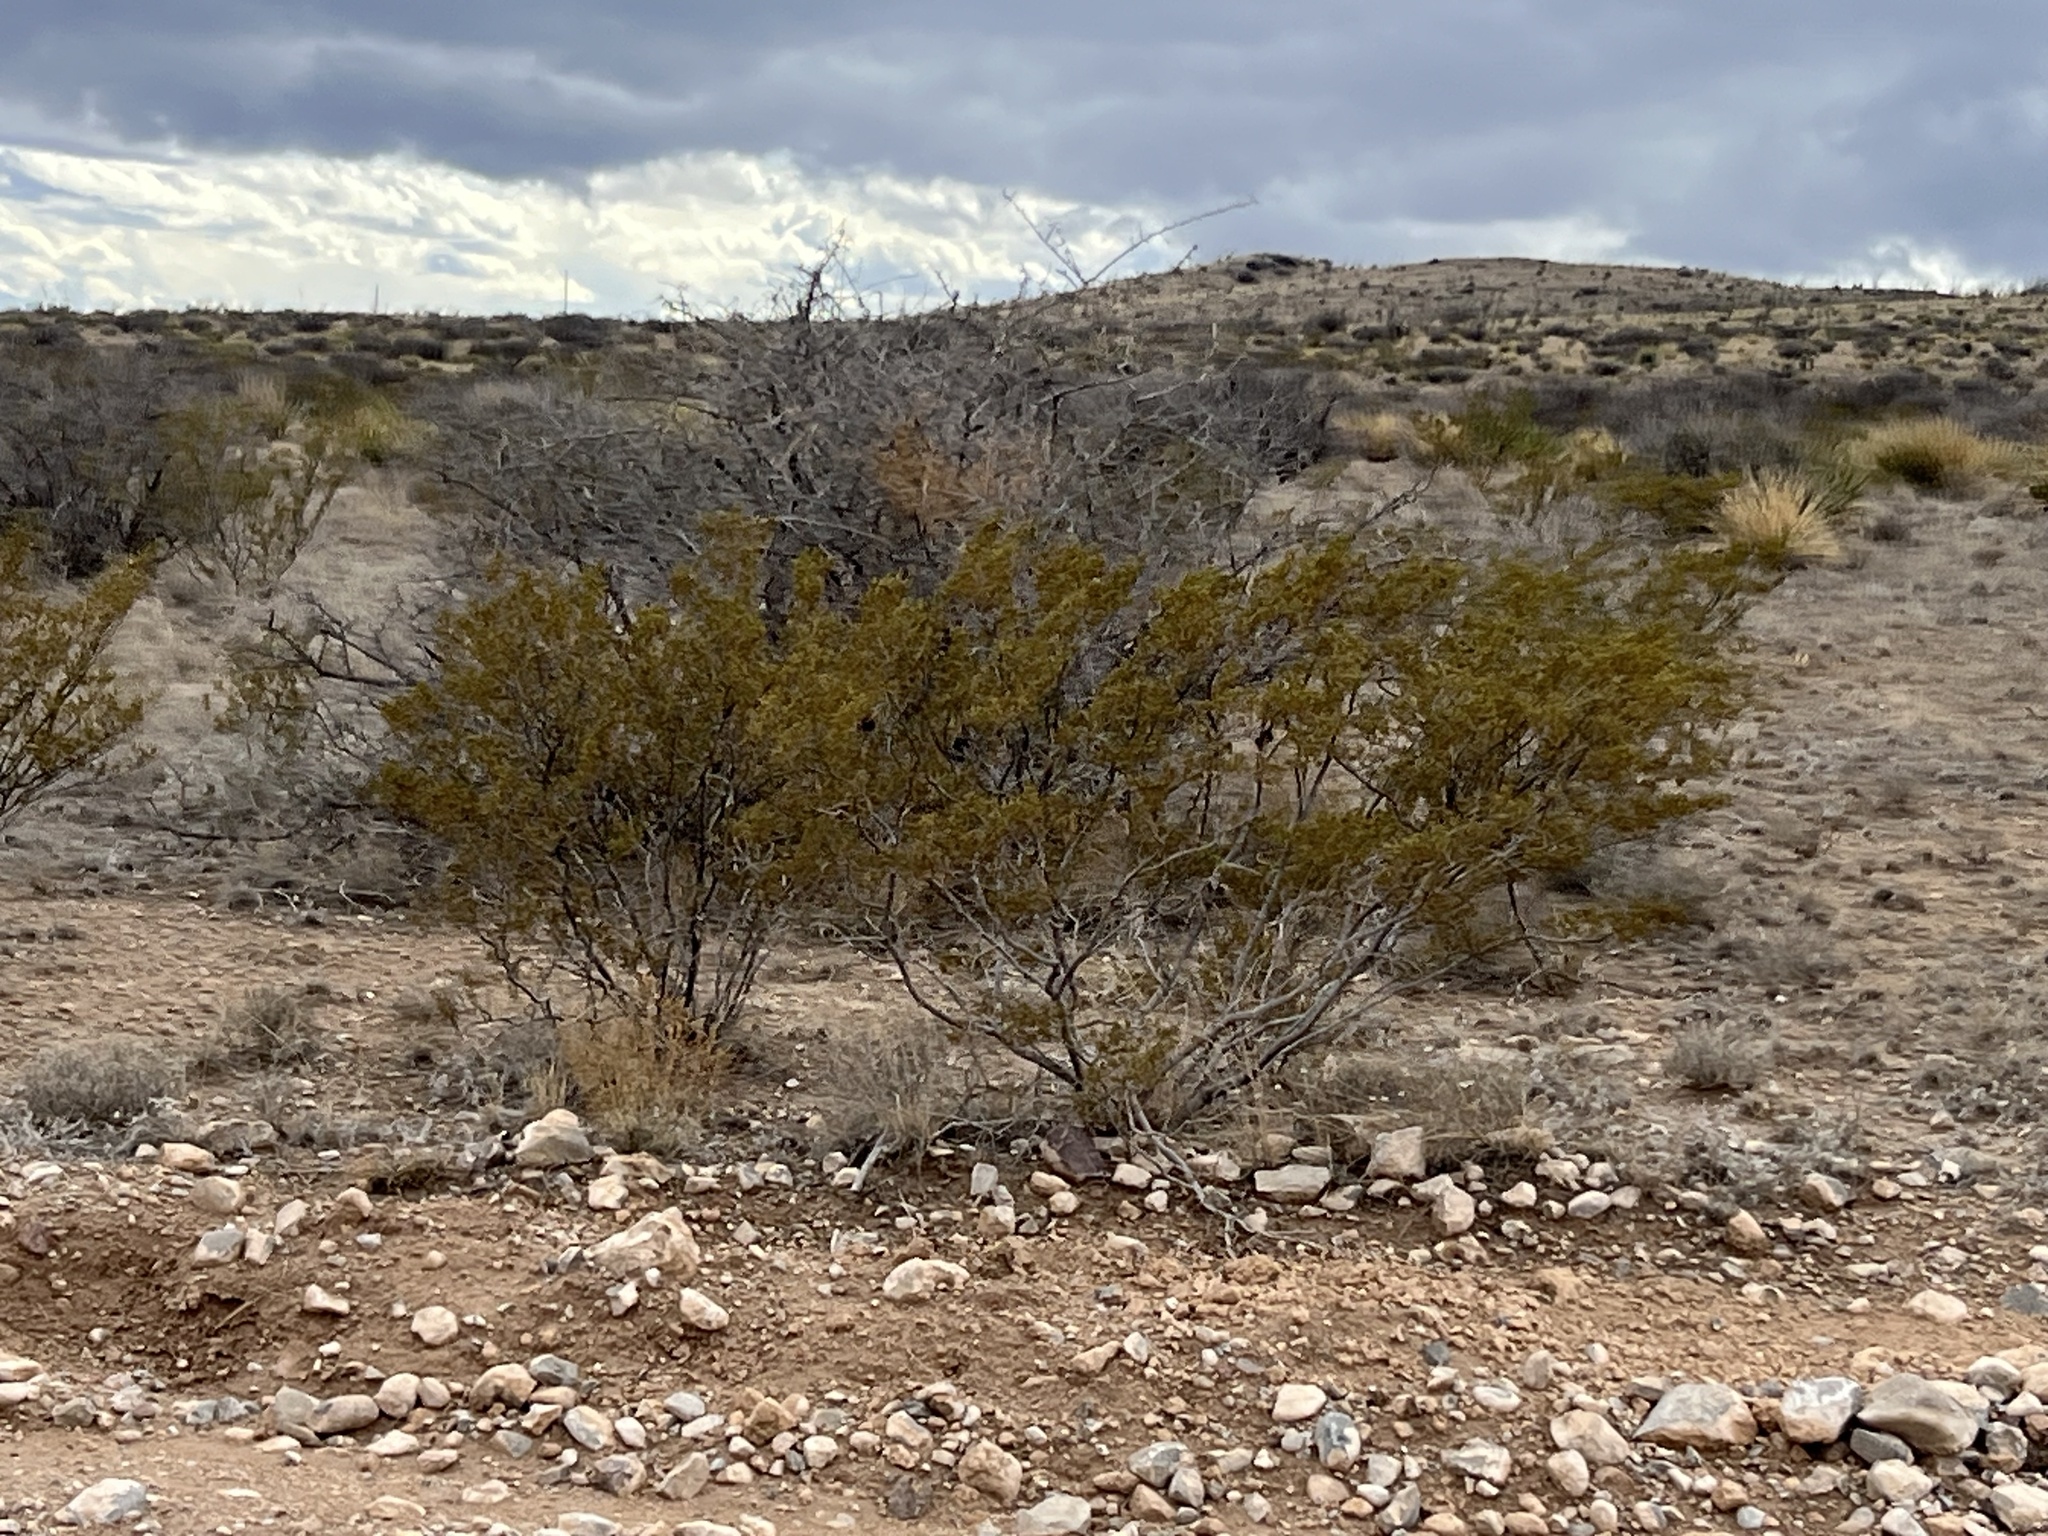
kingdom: Plantae
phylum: Tracheophyta
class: Magnoliopsida
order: Zygophyllales
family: Zygophyllaceae
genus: Larrea
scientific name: Larrea tridentata
